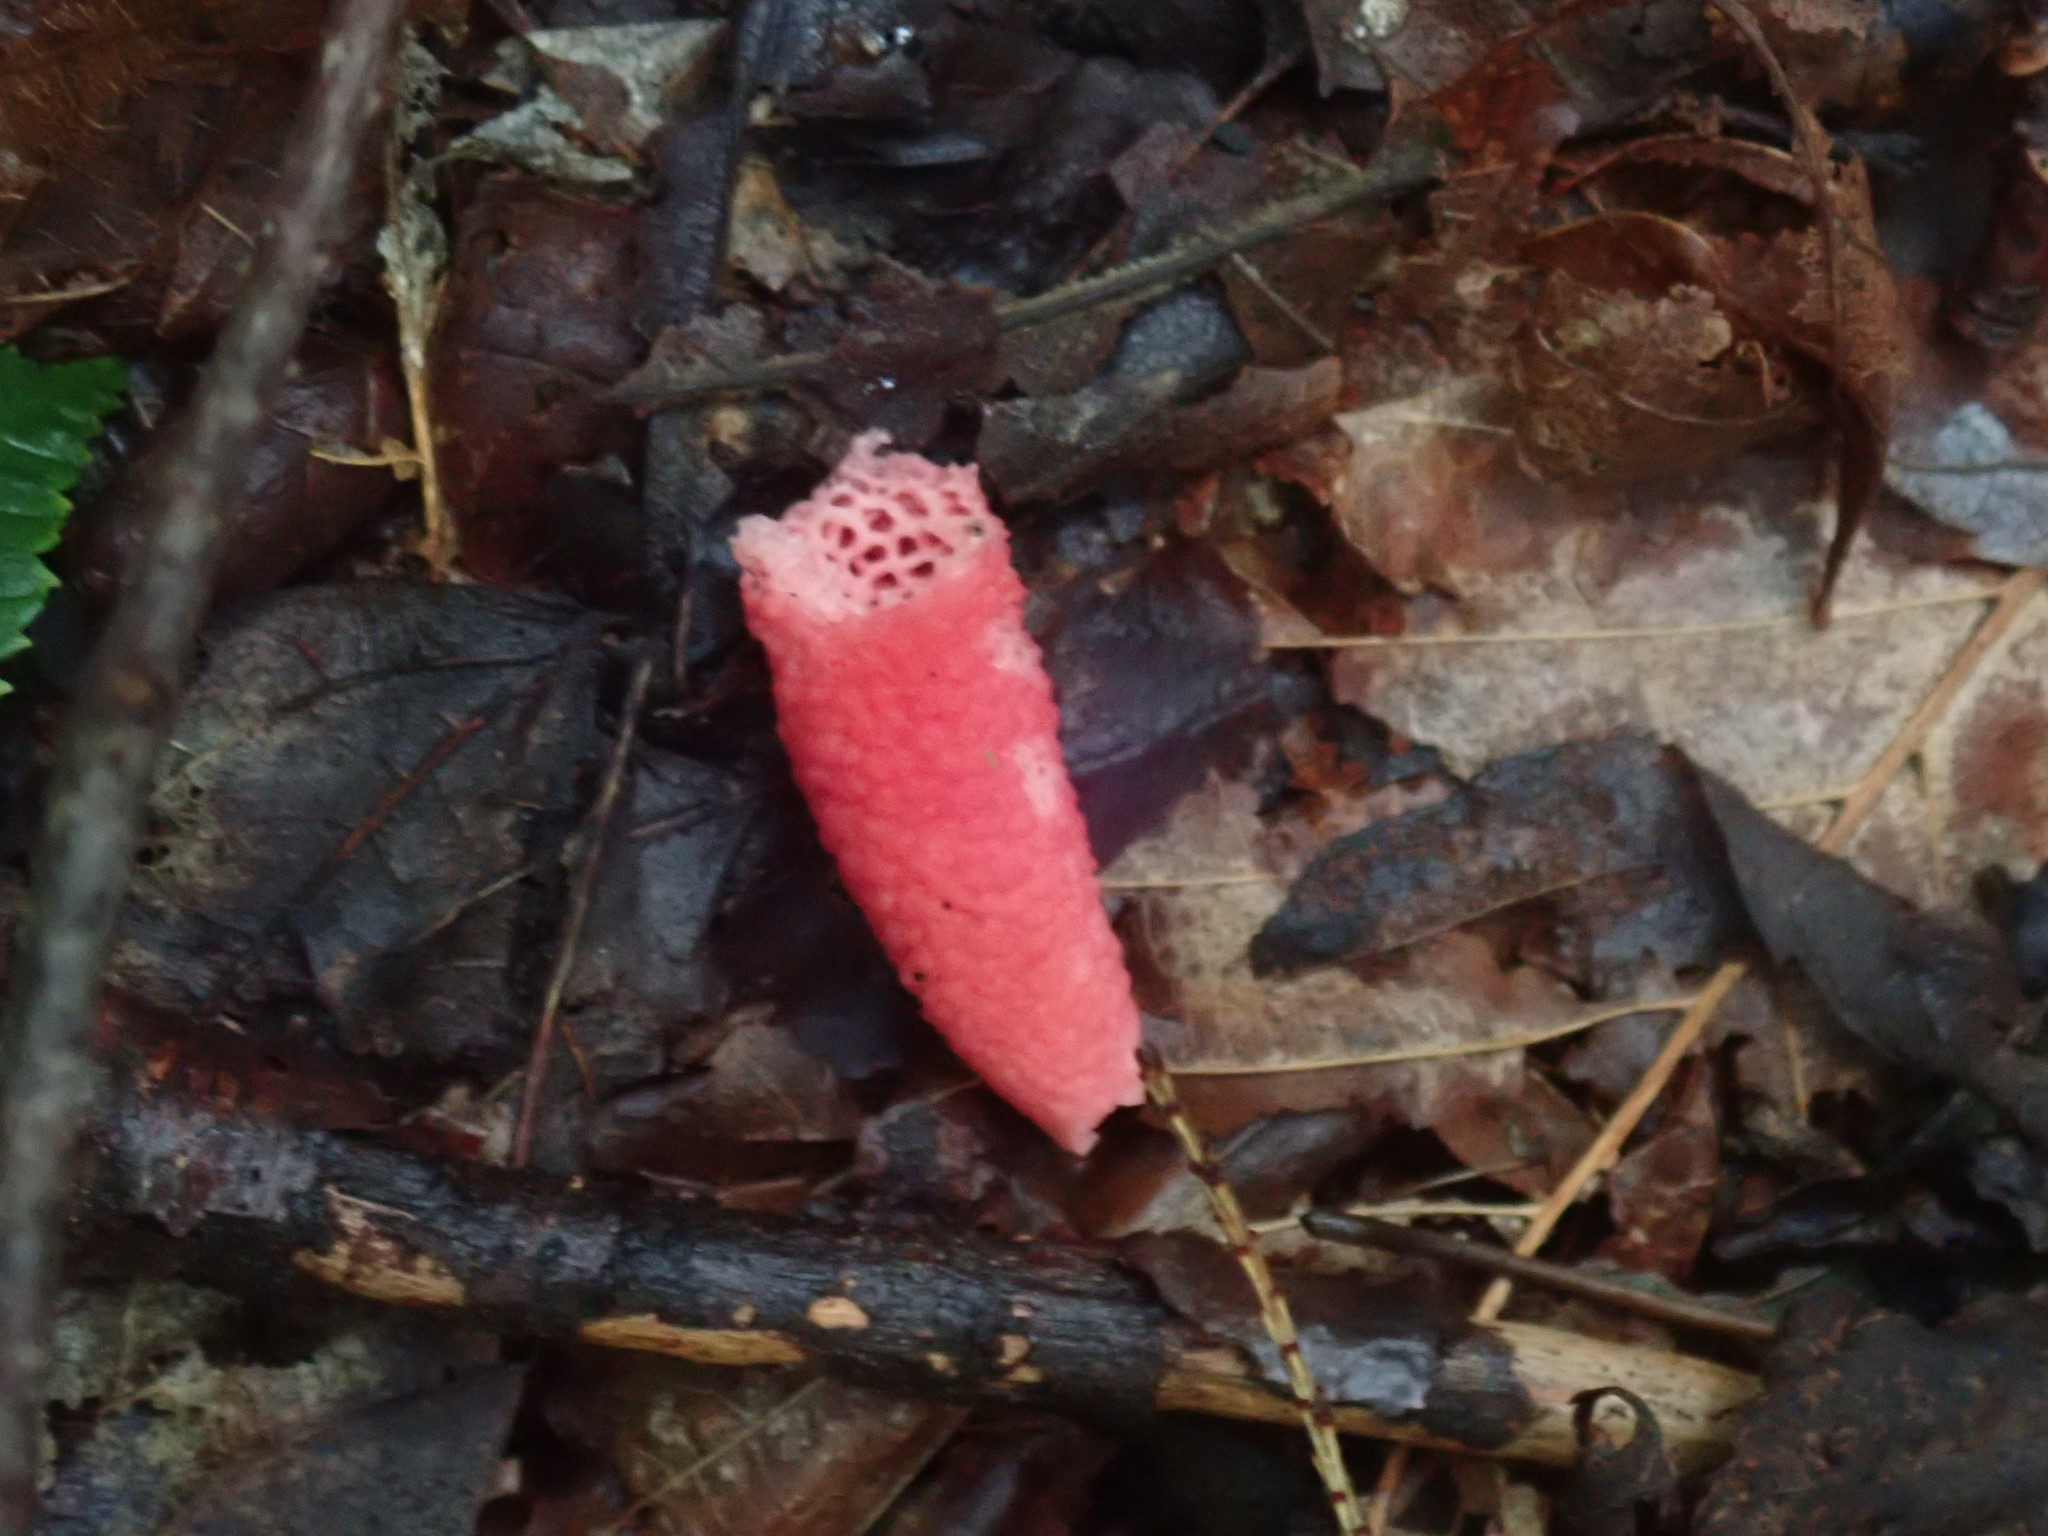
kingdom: Fungi
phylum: Basidiomycota
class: Agaricomycetes
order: Phallales
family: Phallaceae
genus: Mutinus
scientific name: Mutinus elegans
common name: Devil's dipstick
